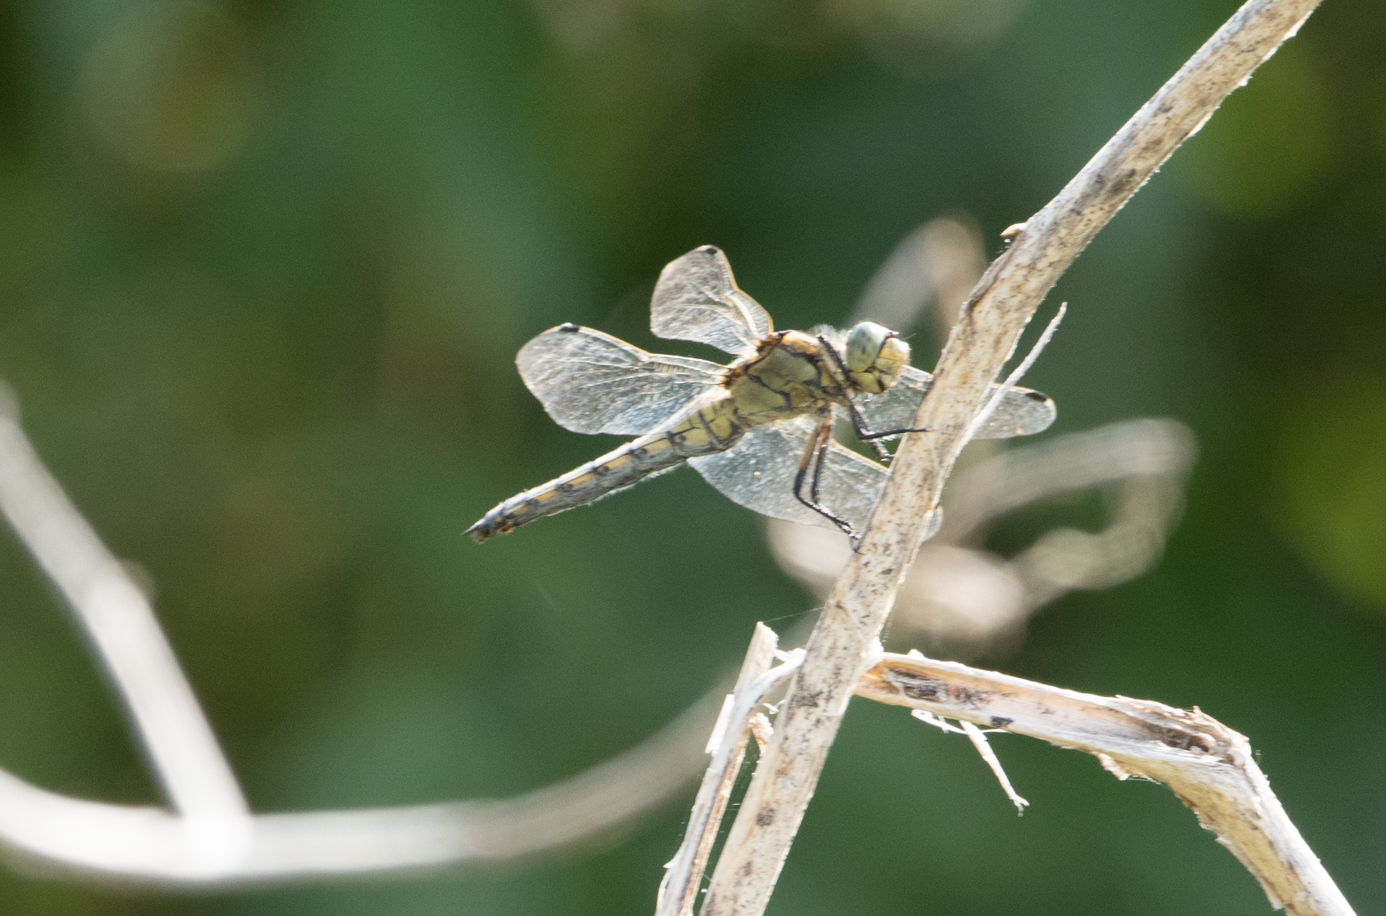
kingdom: Animalia
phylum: Arthropoda
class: Insecta
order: Odonata
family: Libellulidae
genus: Orthetrum
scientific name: Orthetrum cancellatum
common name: Black-tailed skimmer
